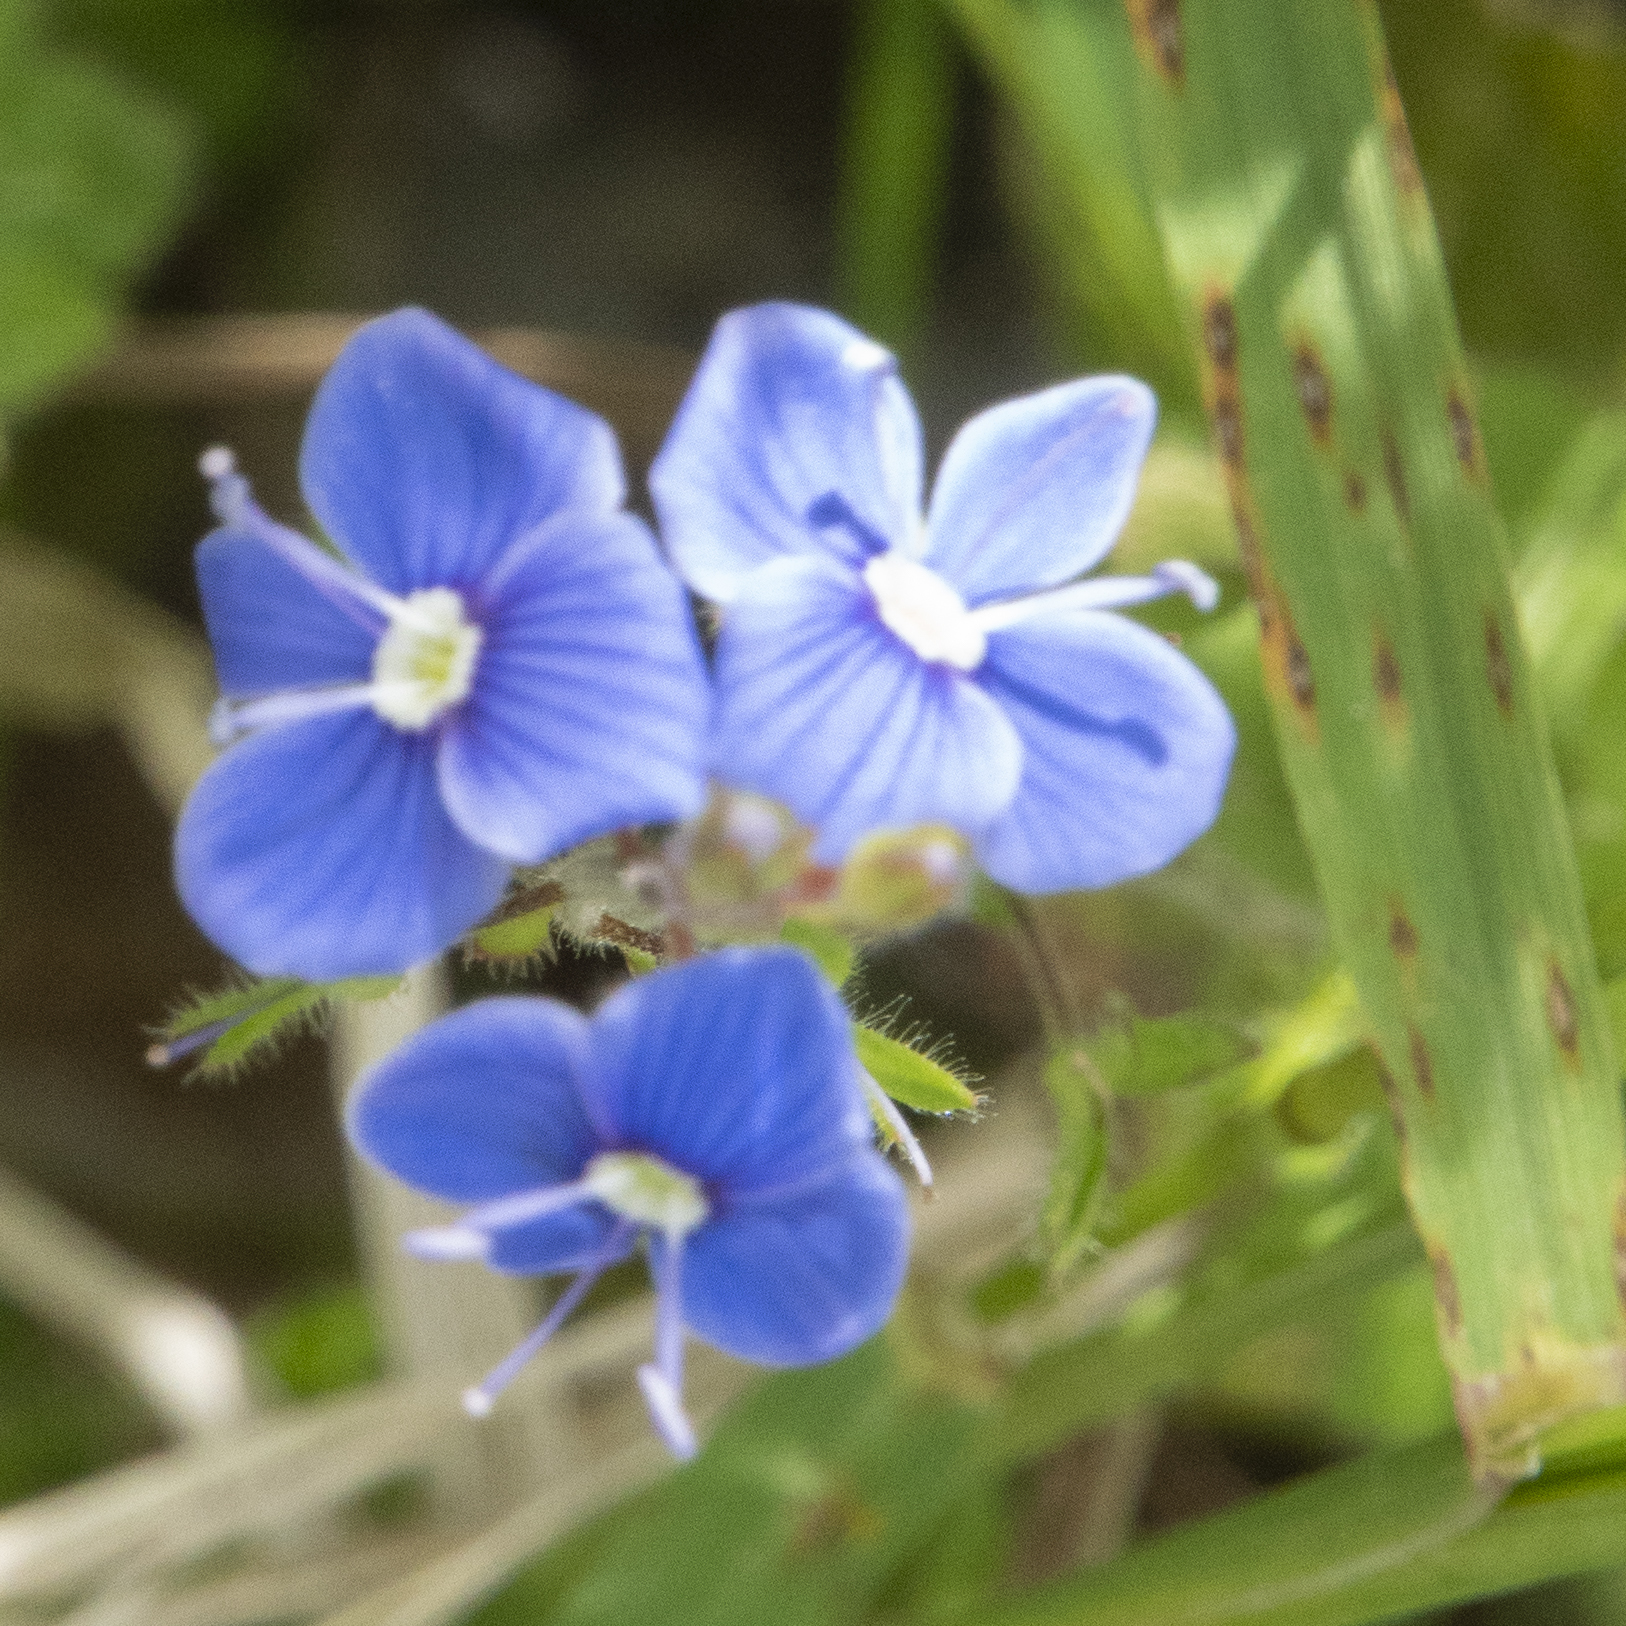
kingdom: Plantae
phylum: Tracheophyta
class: Magnoliopsida
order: Lamiales
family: Plantaginaceae
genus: Veronica
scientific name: Veronica chamaedrys
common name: Germander speedwell
